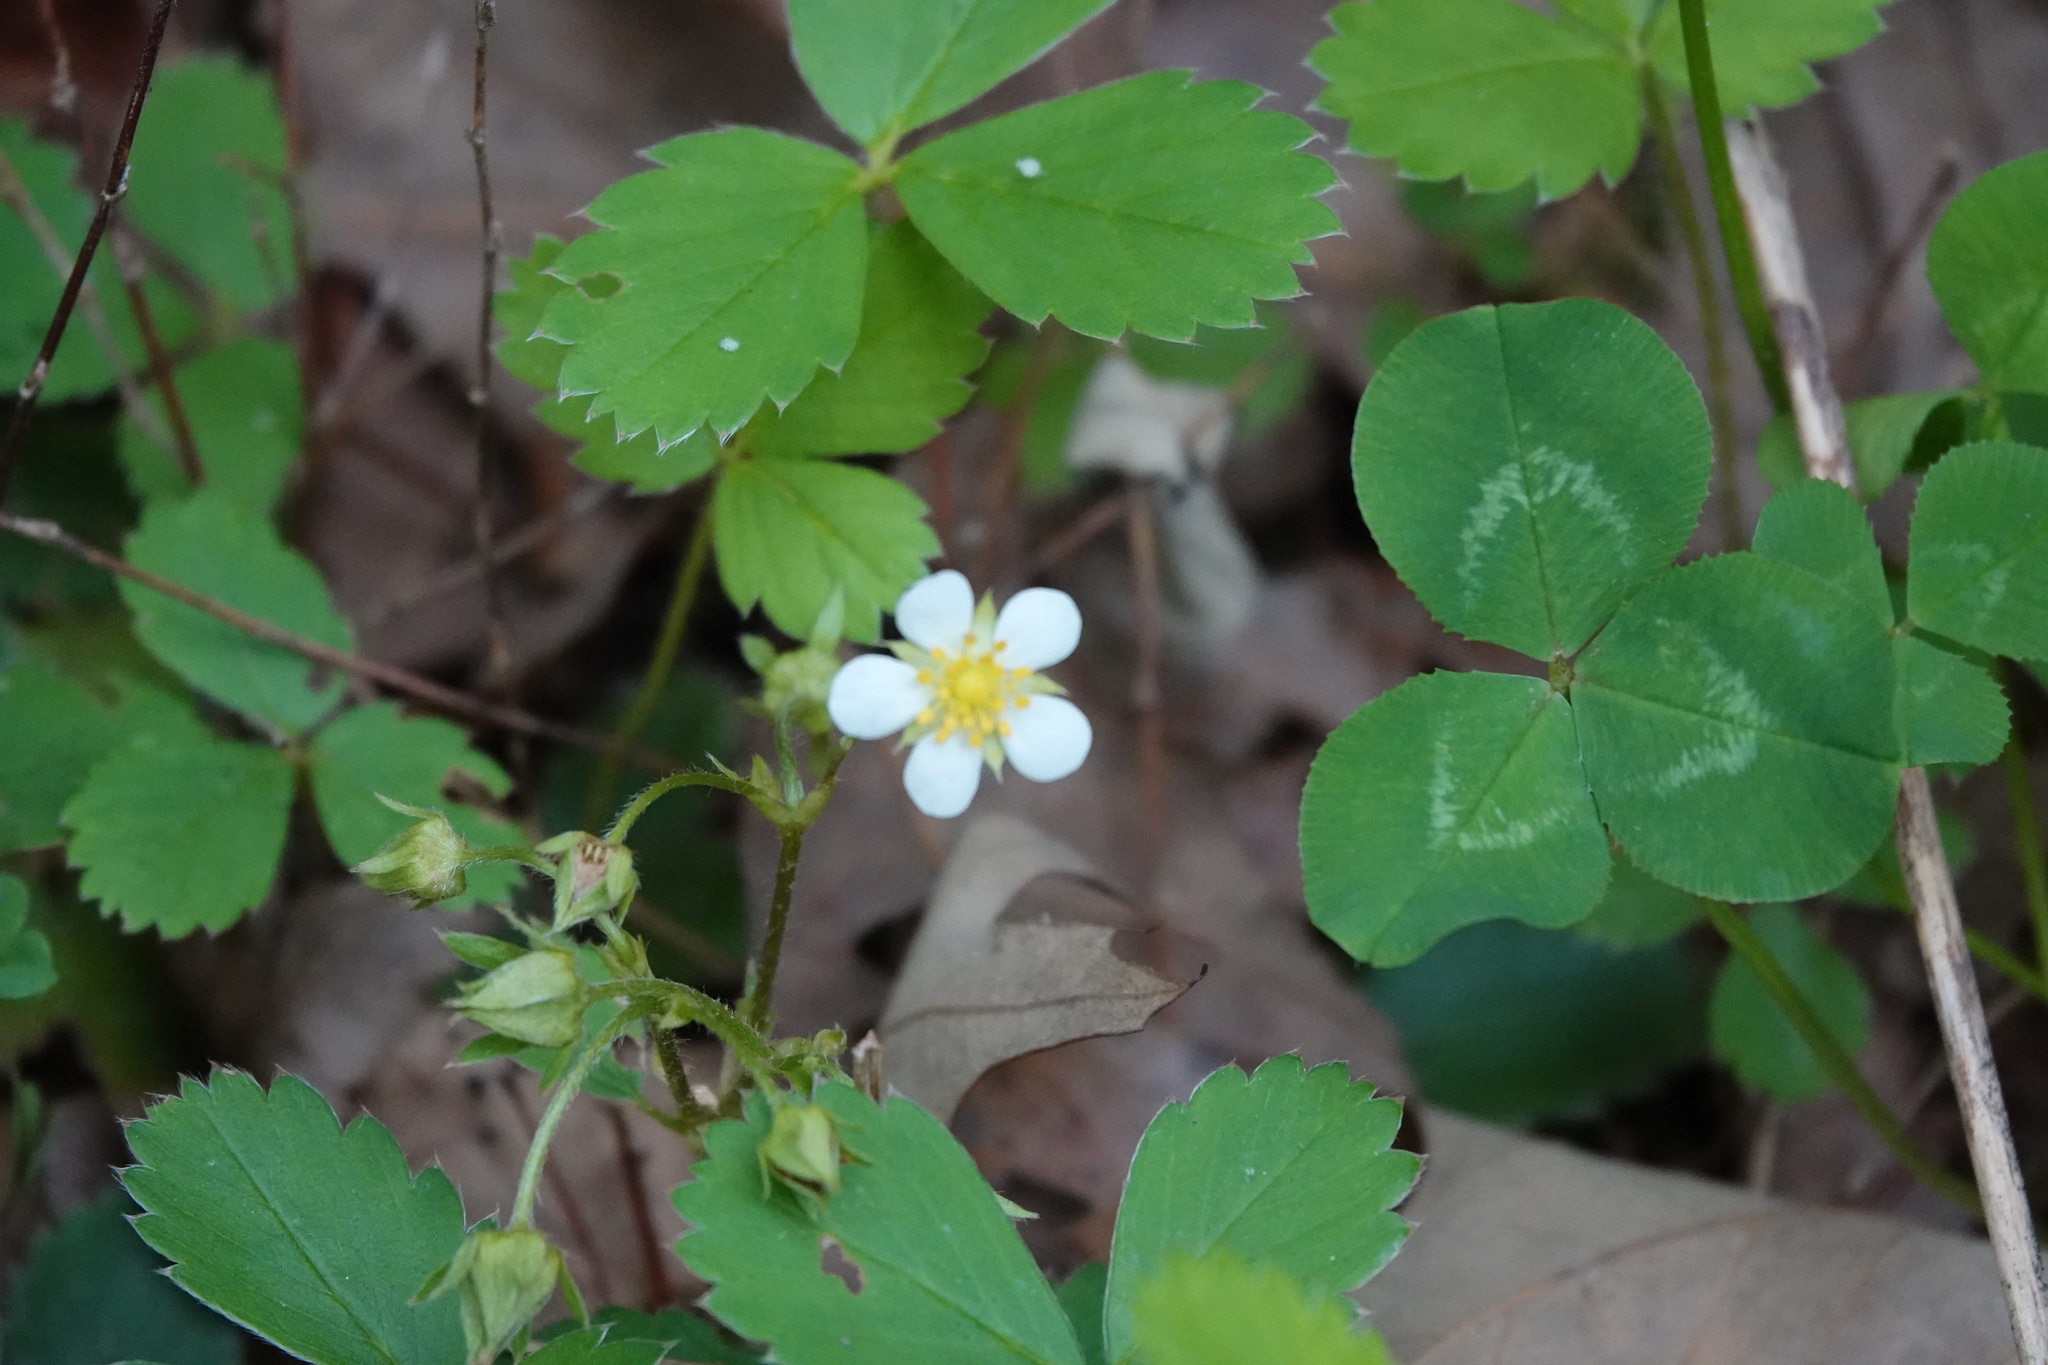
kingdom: Plantae
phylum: Tracheophyta
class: Magnoliopsida
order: Rosales
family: Rosaceae
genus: Fragaria
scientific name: Fragaria virginiana
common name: Thickleaved wild strawberry
